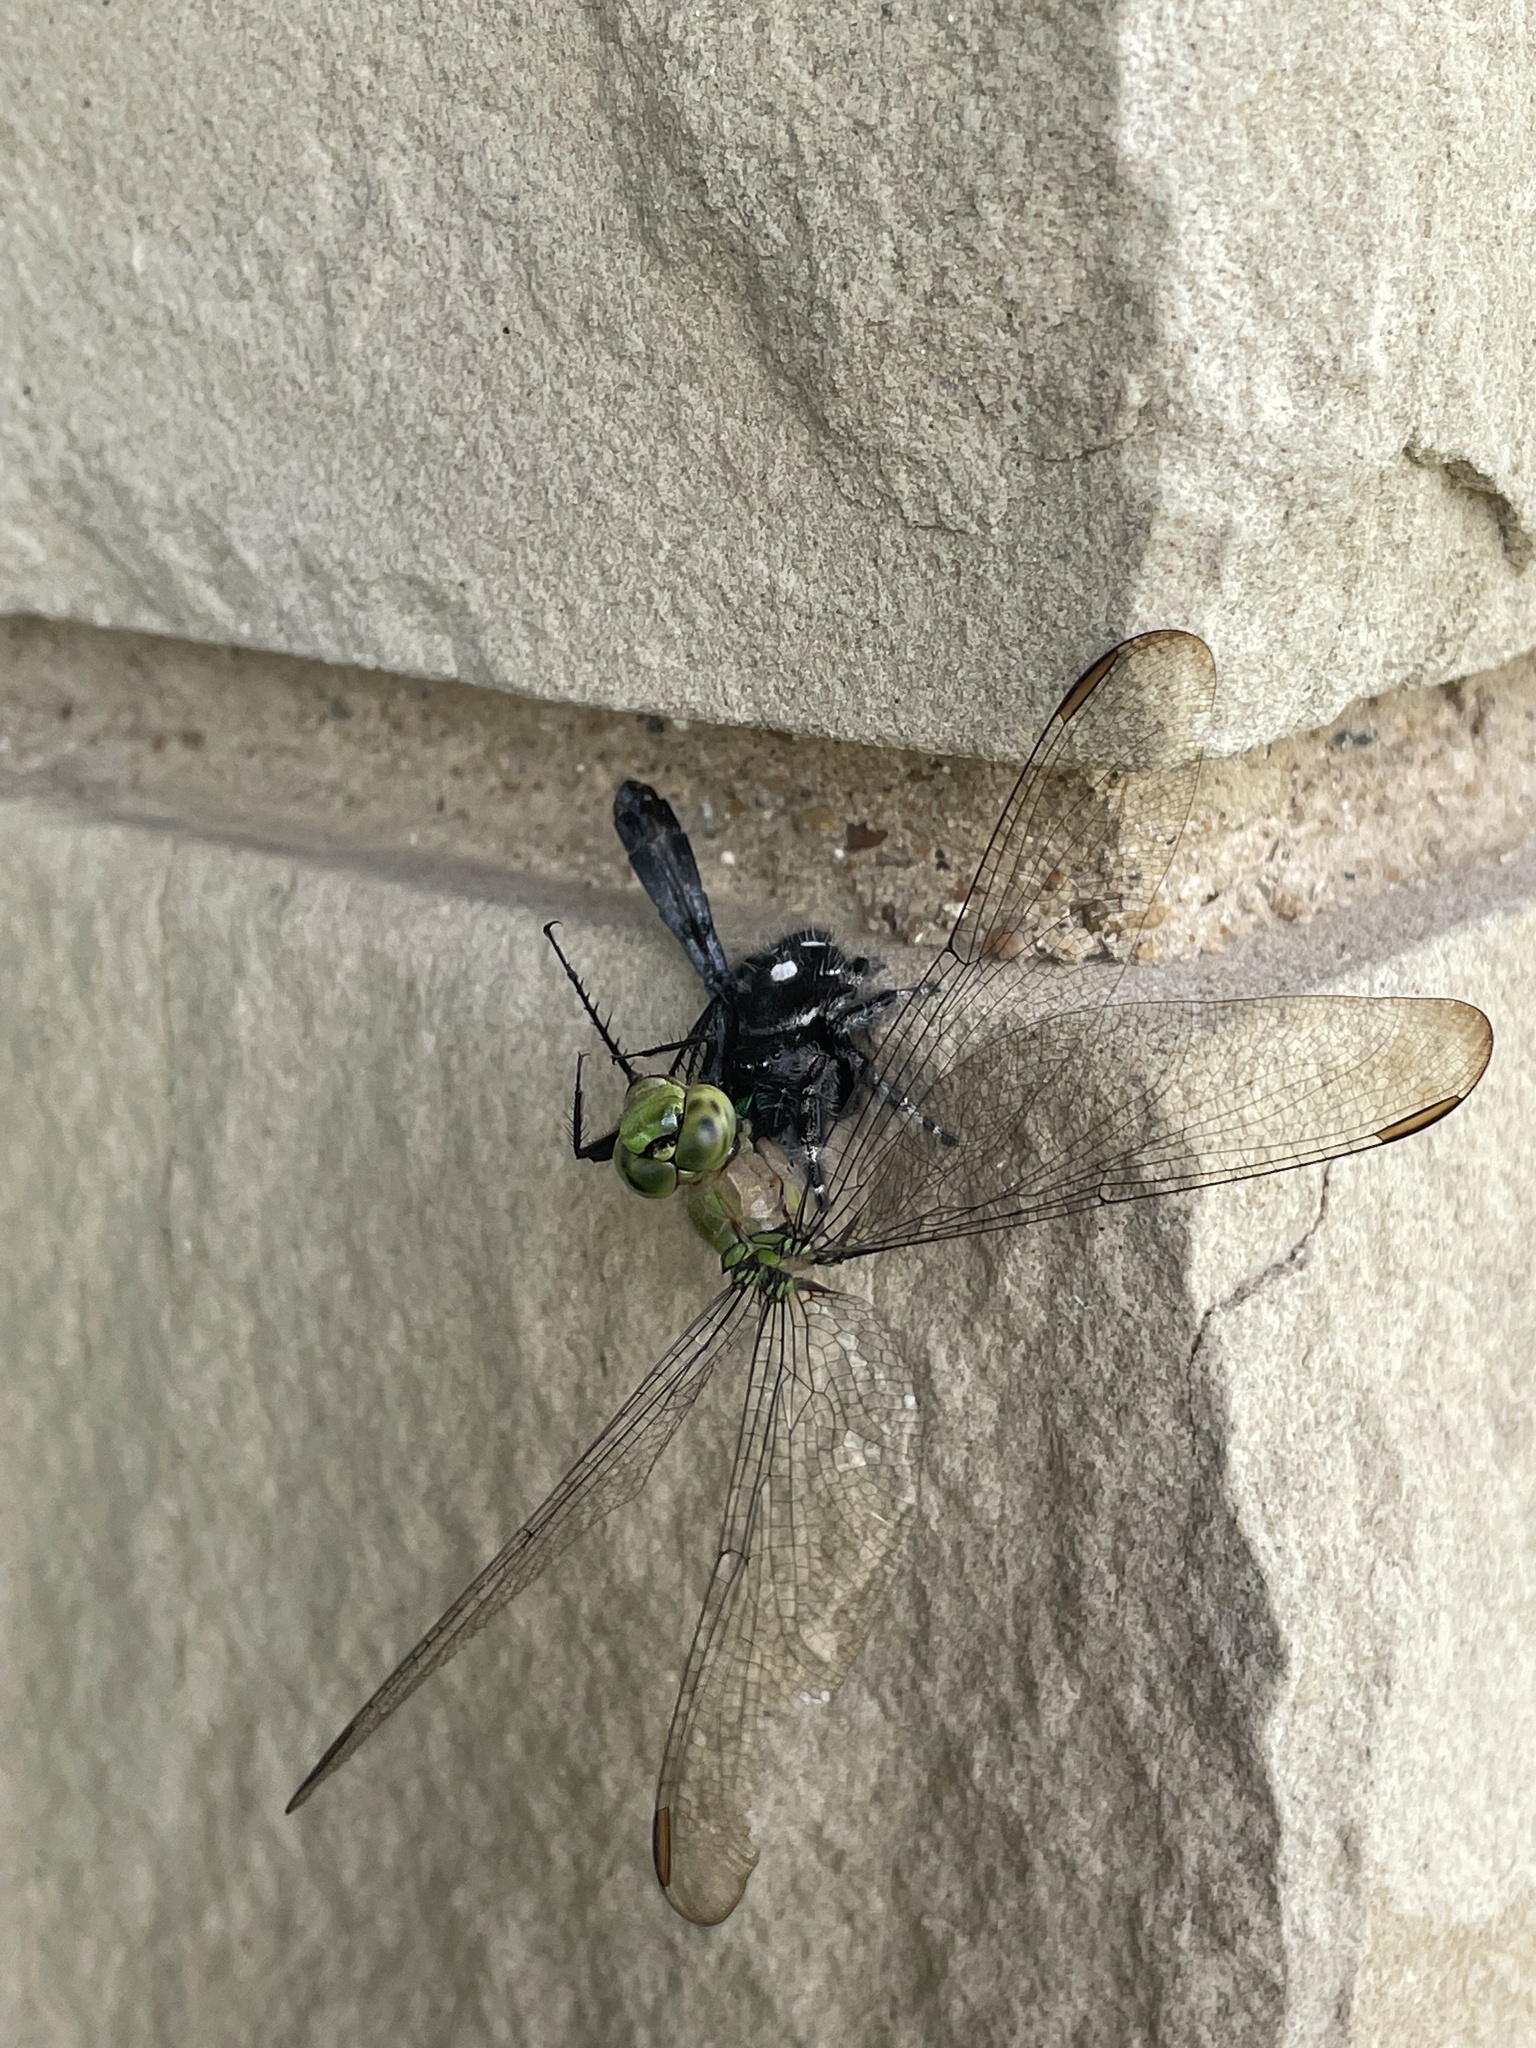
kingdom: Animalia
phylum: Arthropoda
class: Arachnida
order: Araneae
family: Salticidae
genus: Phidippus
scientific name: Phidippus audax
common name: Bold jumper
